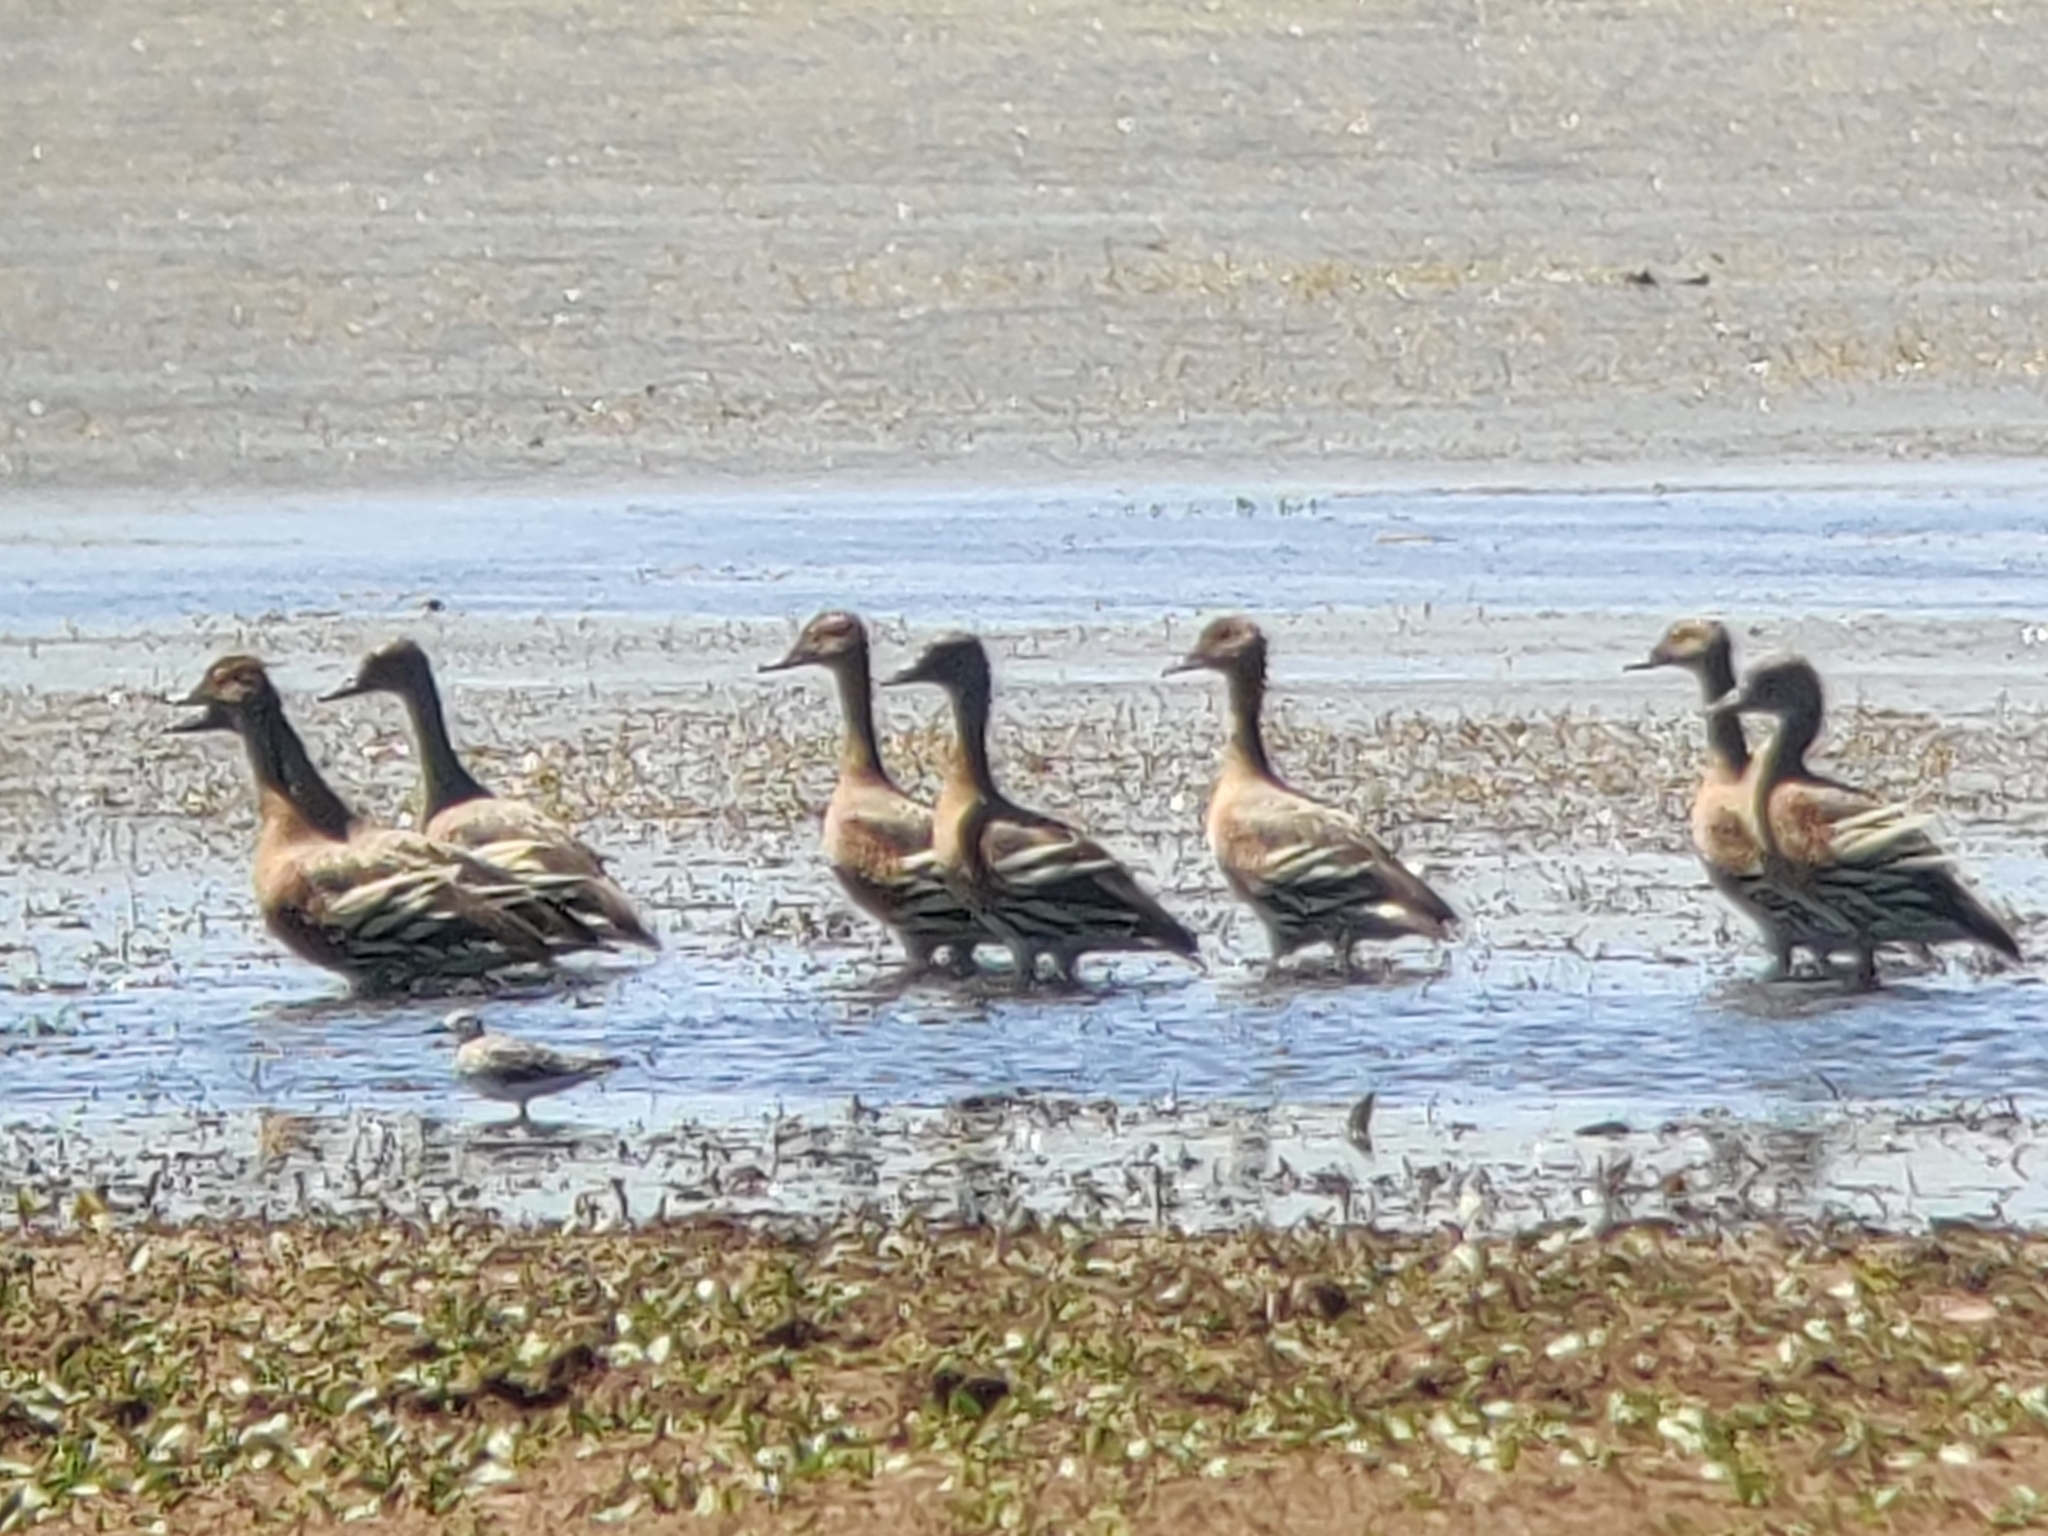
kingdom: Animalia
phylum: Chordata
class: Aves
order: Anseriformes
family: Anatidae
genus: Dendrocygna
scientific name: Dendrocygna eytoni
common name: Plumed whistling-duck
